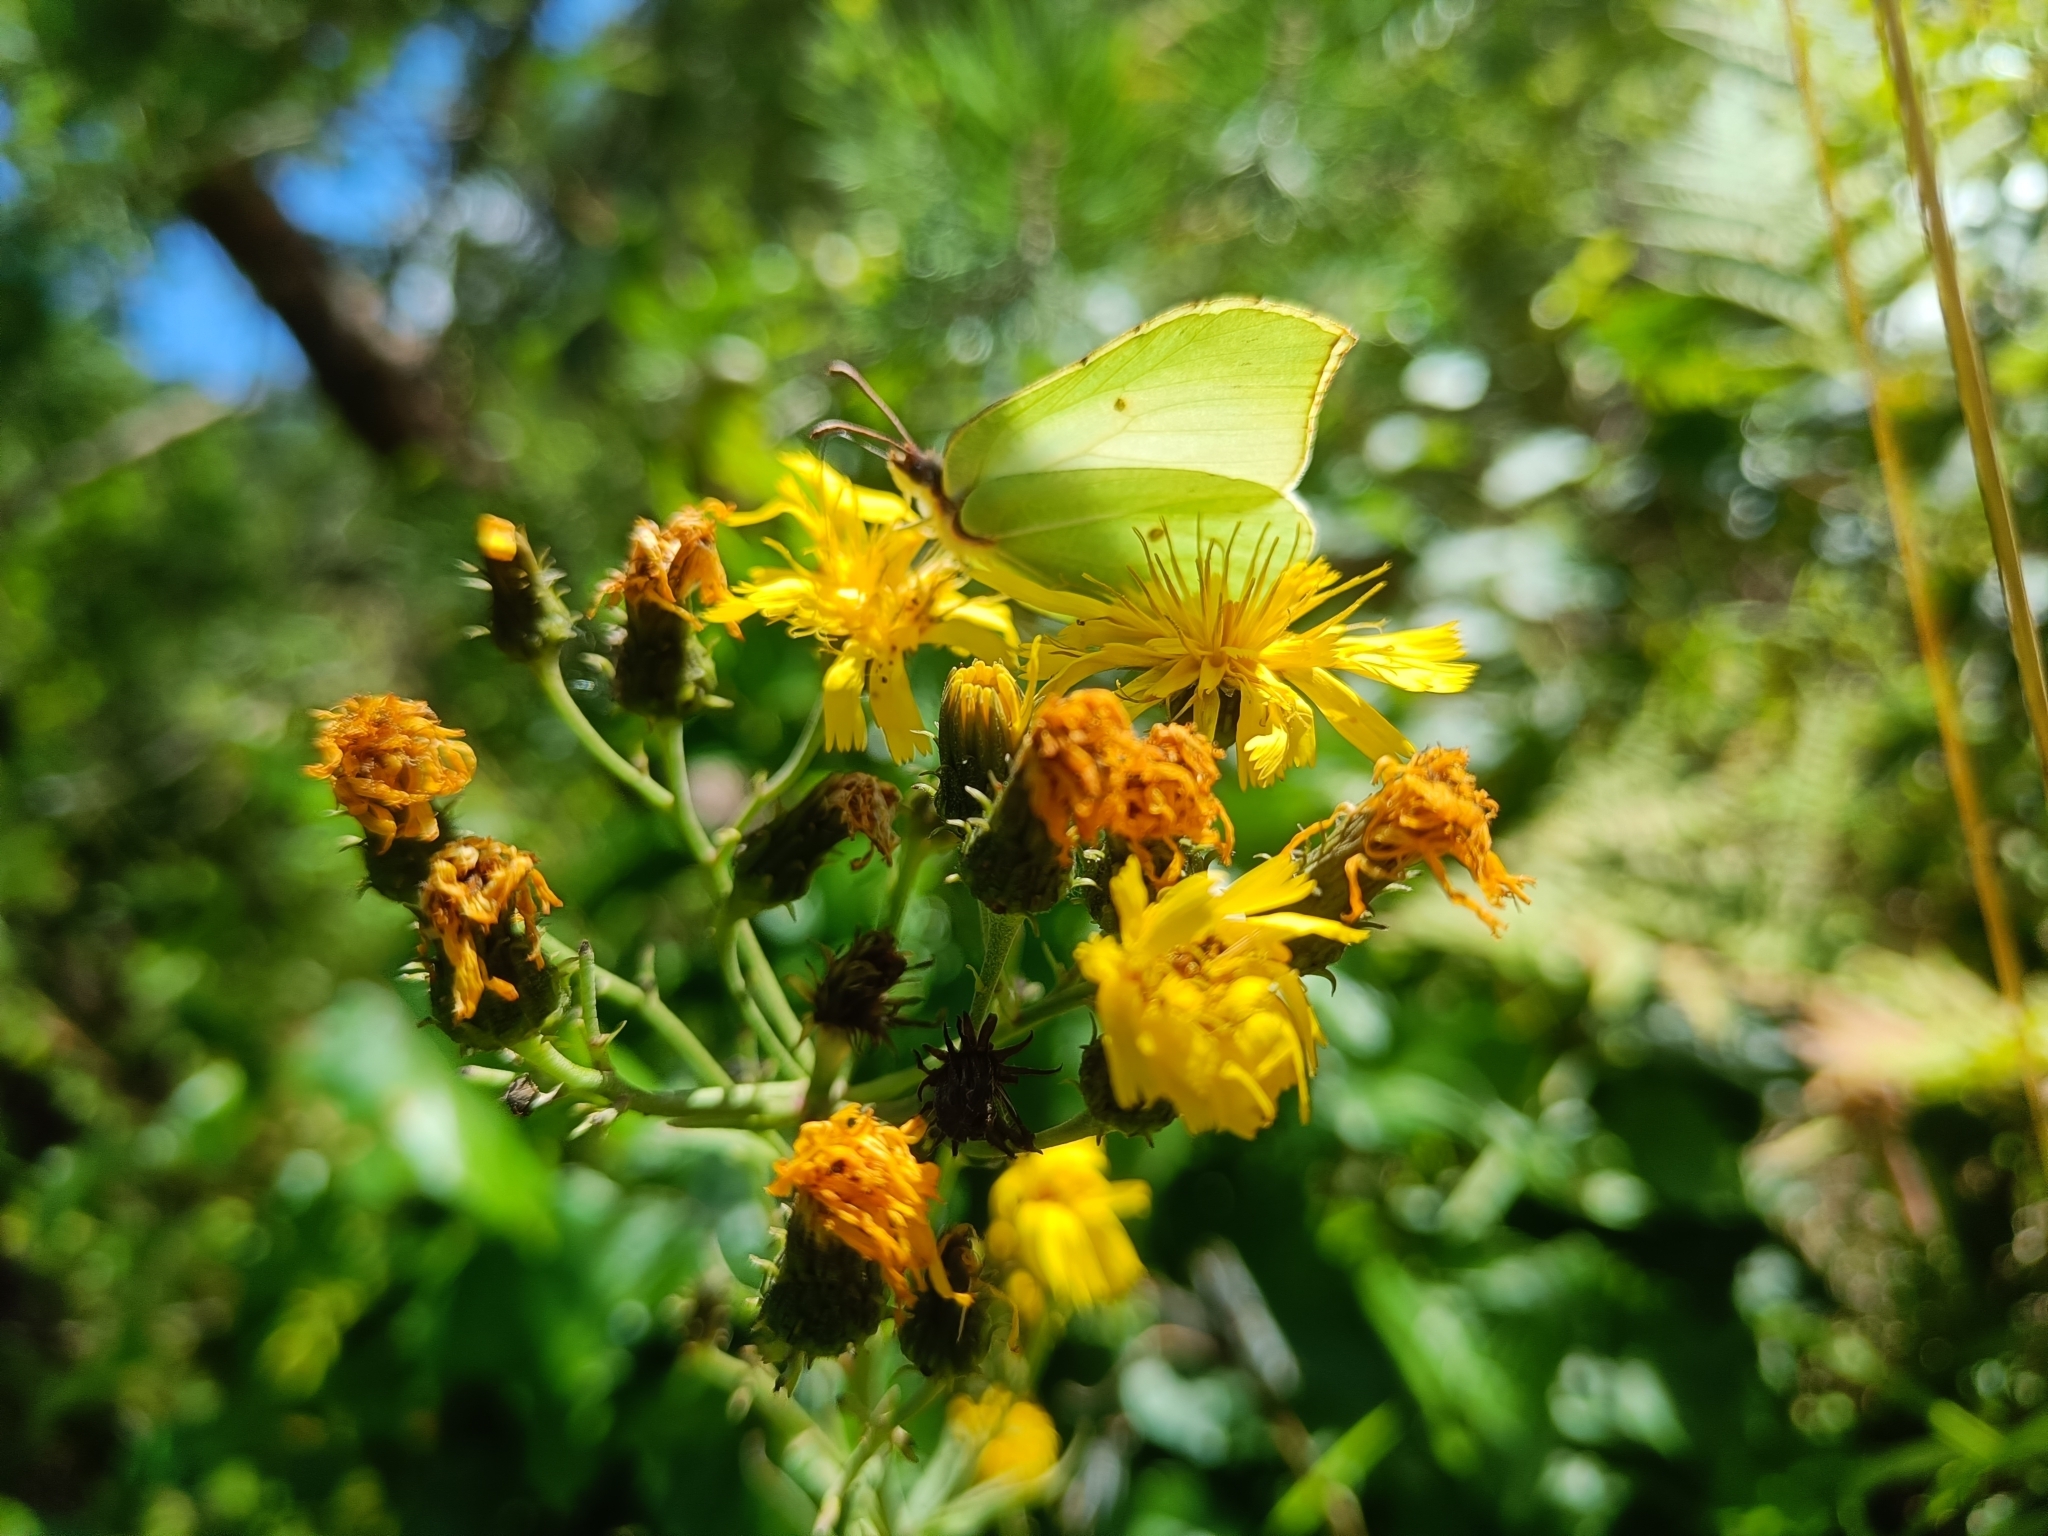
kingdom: Animalia
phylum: Arthropoda
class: Insecta
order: Lepidoptera
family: Pieridae
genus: Gonepteryx
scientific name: Gonepteryx rhamni
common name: Brimstone
